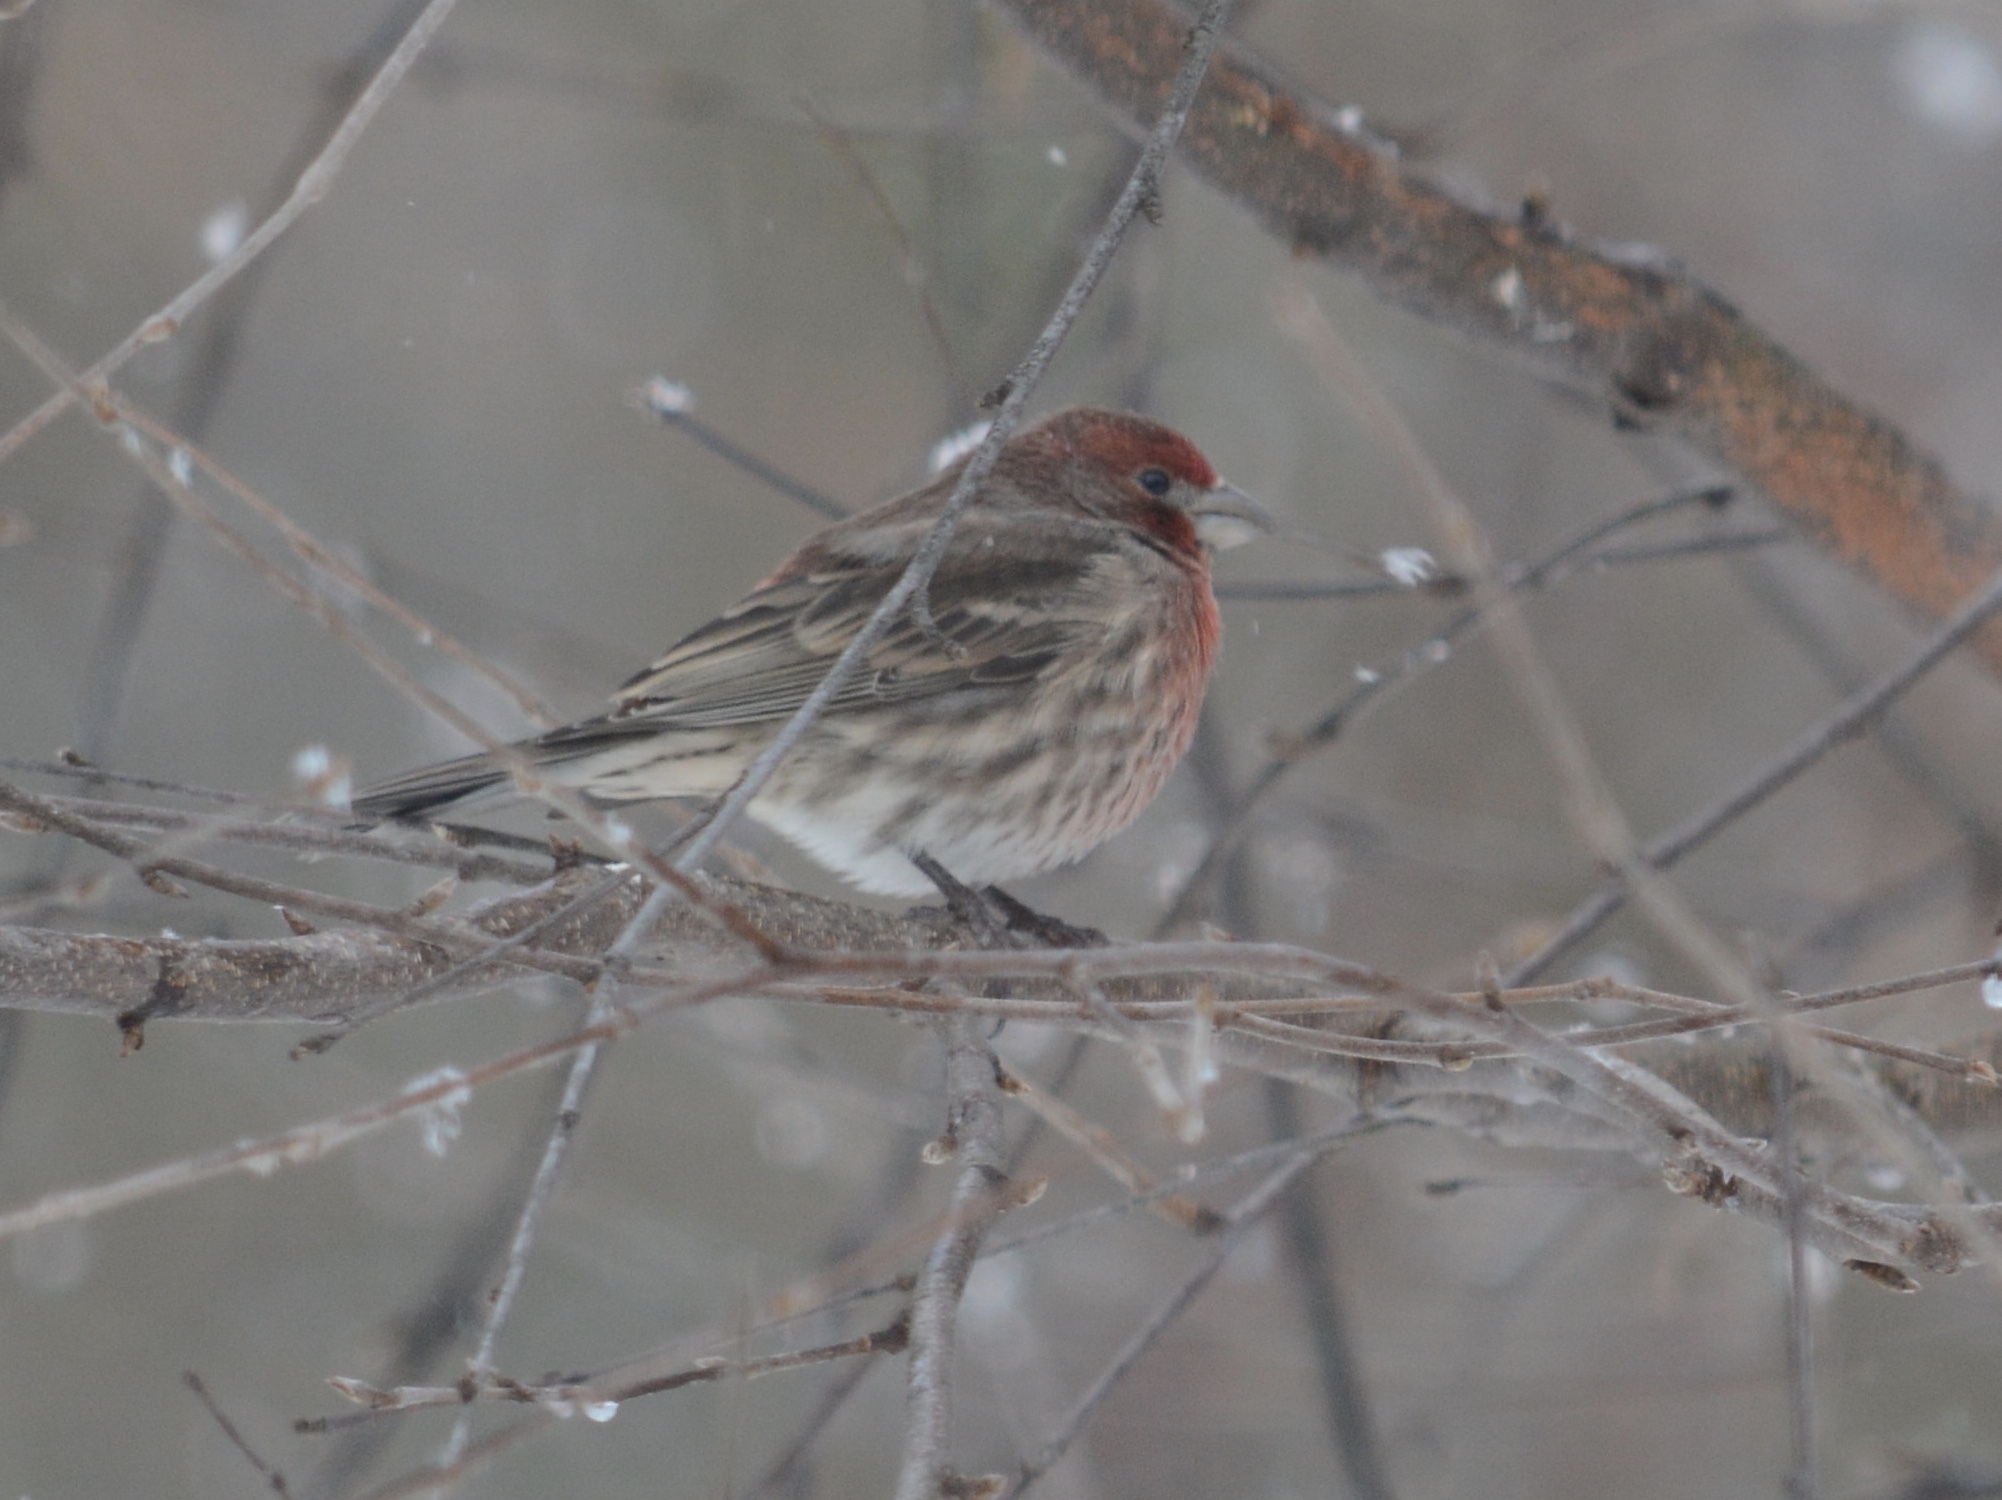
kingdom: Animalia
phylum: Chordata
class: Aves
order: Passeriformes
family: Fringillidae
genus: Haemorhous
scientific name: Haemorhous mexicanus
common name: House finch
